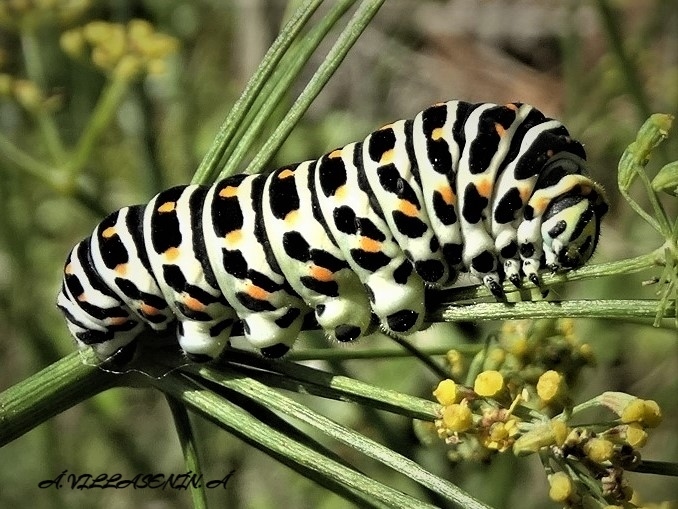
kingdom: Animalia
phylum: Arthropoda
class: Insecta
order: Lepidoptera
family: Papilionidae
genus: Papilio
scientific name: Papilio machaon
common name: Swallowtail
